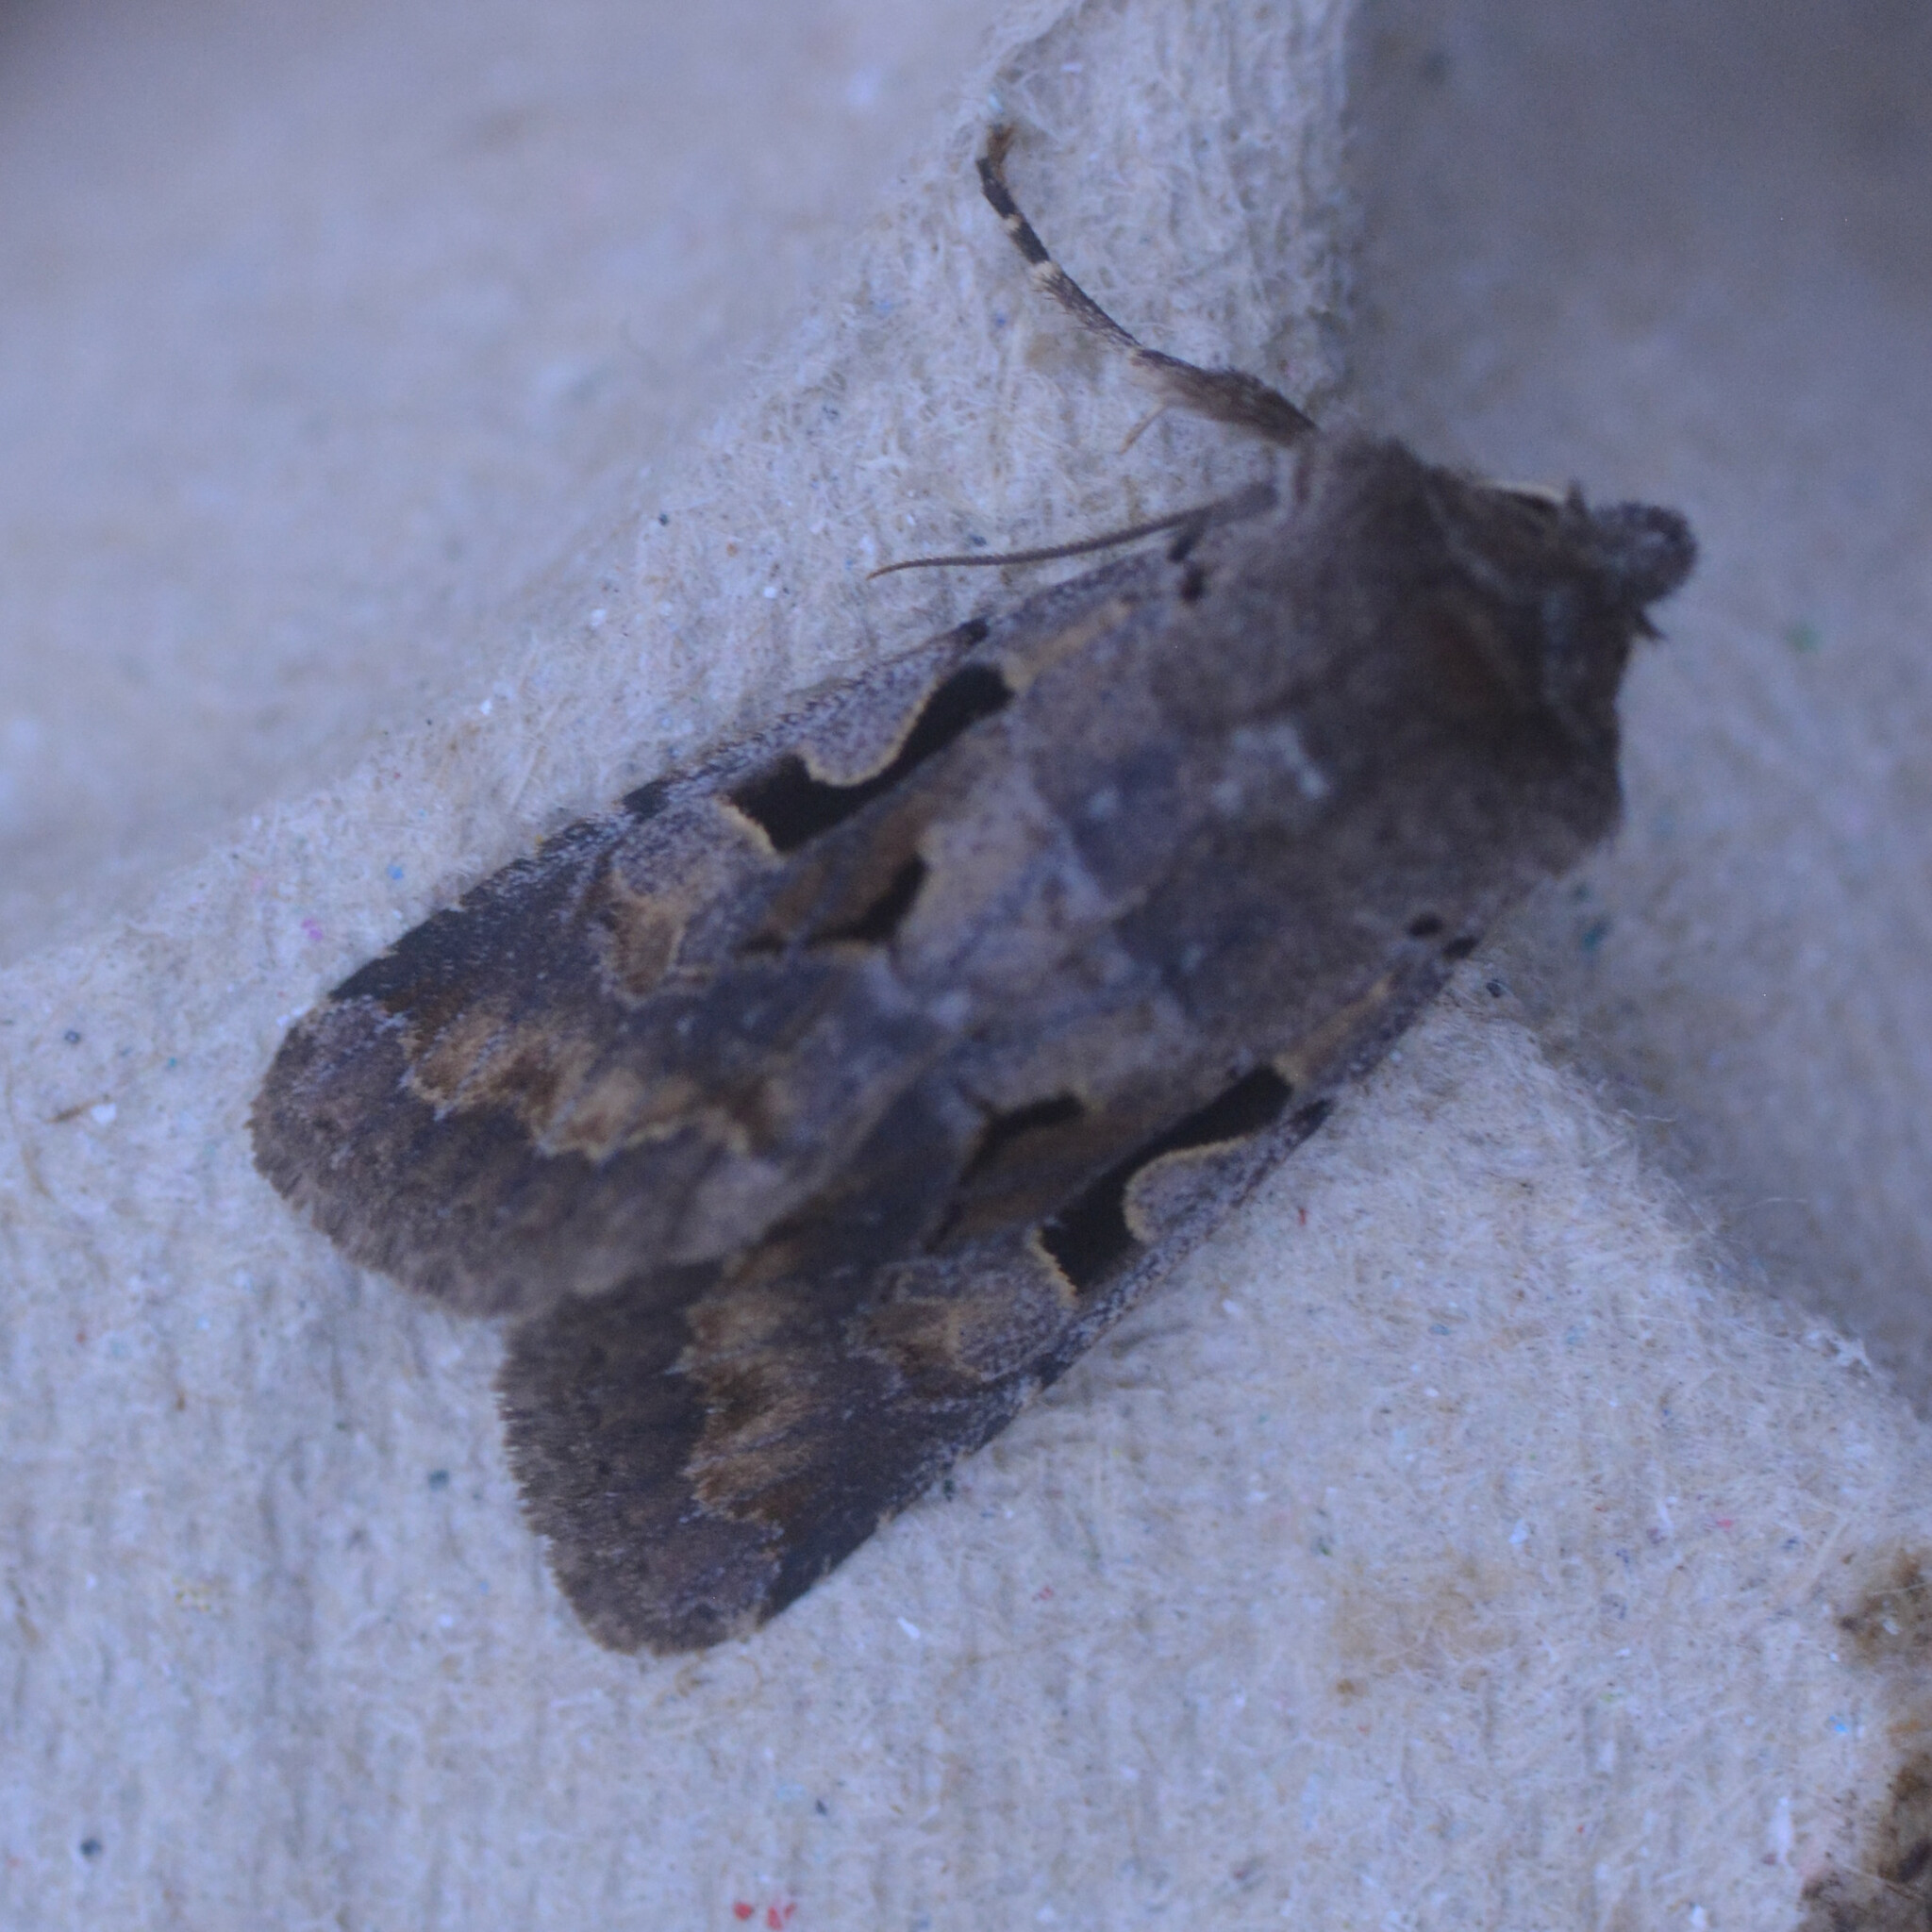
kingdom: Animalia
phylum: Arthropoda
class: Insecta
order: Lepidoptera
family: Noctuidae
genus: Orthosia
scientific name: Orthosia gothica
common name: Hebrew character
